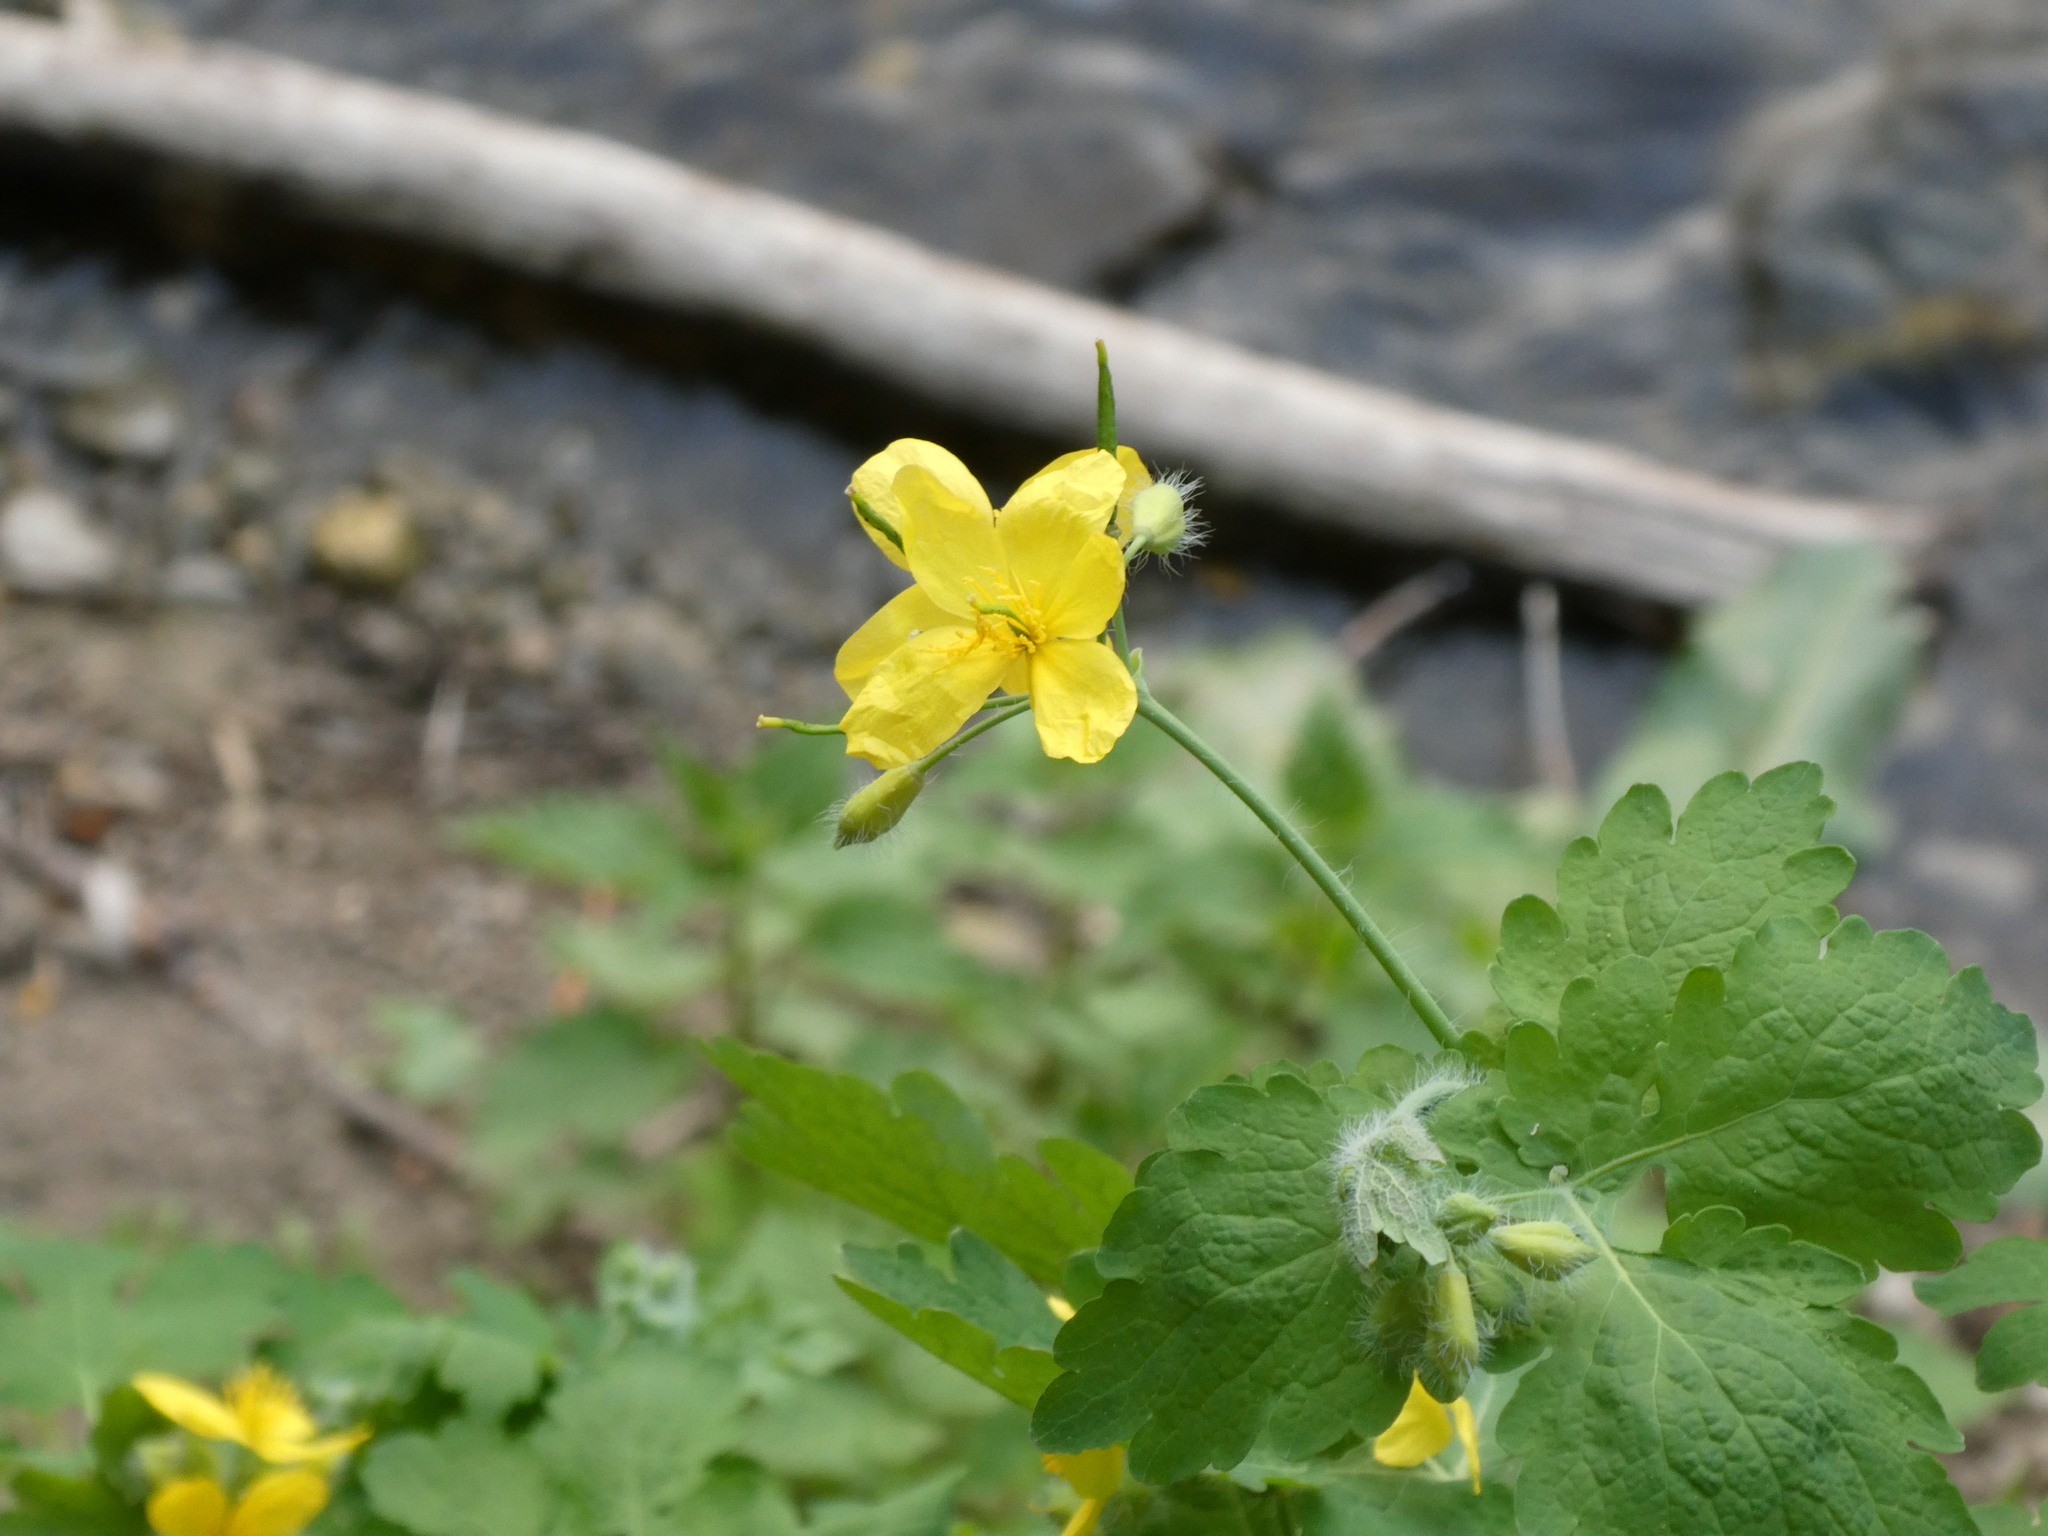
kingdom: Plantae
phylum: Tracheophyta
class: Magnoliopsida
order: Ranunculales
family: Papaveraceae
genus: Chelidonium
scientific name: Chelidonium majus
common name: Greater celandine
